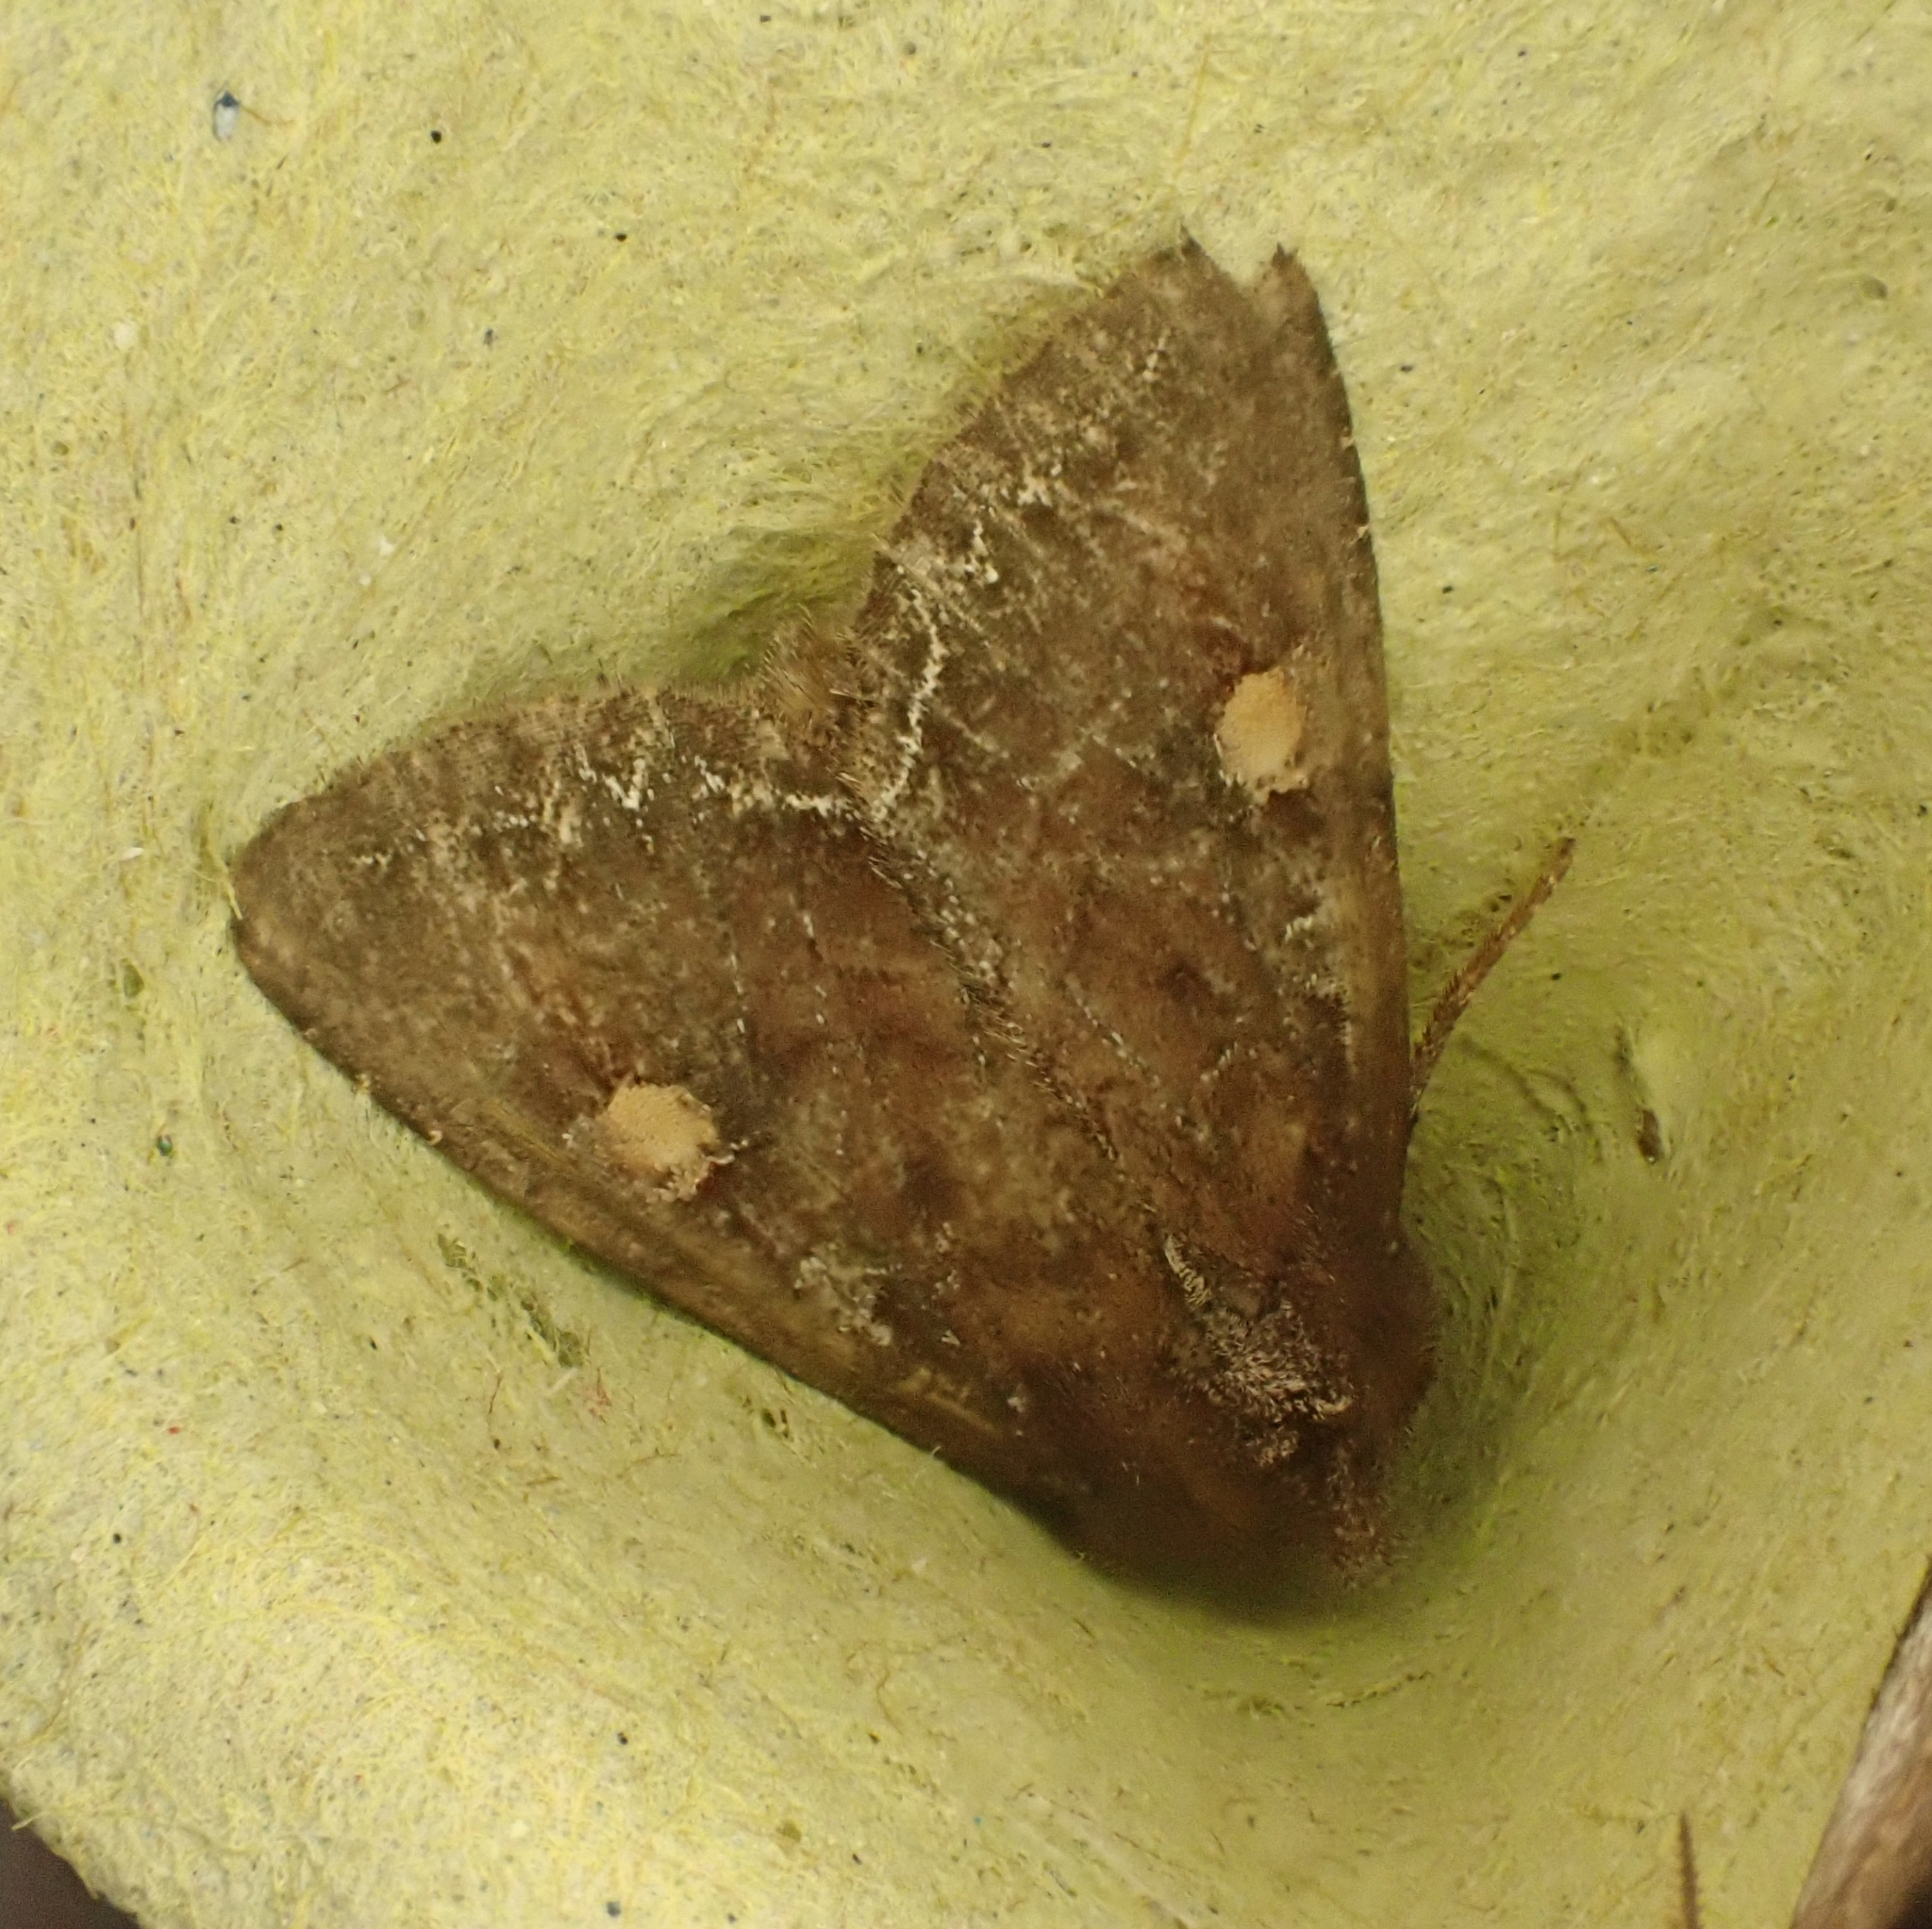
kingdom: Animalia
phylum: Arthropoda
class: Insecta
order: Lepidoptera
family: Noctuidae
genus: Lacanobia
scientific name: Lacanobia oleracea
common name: Bright-line brown-eye
